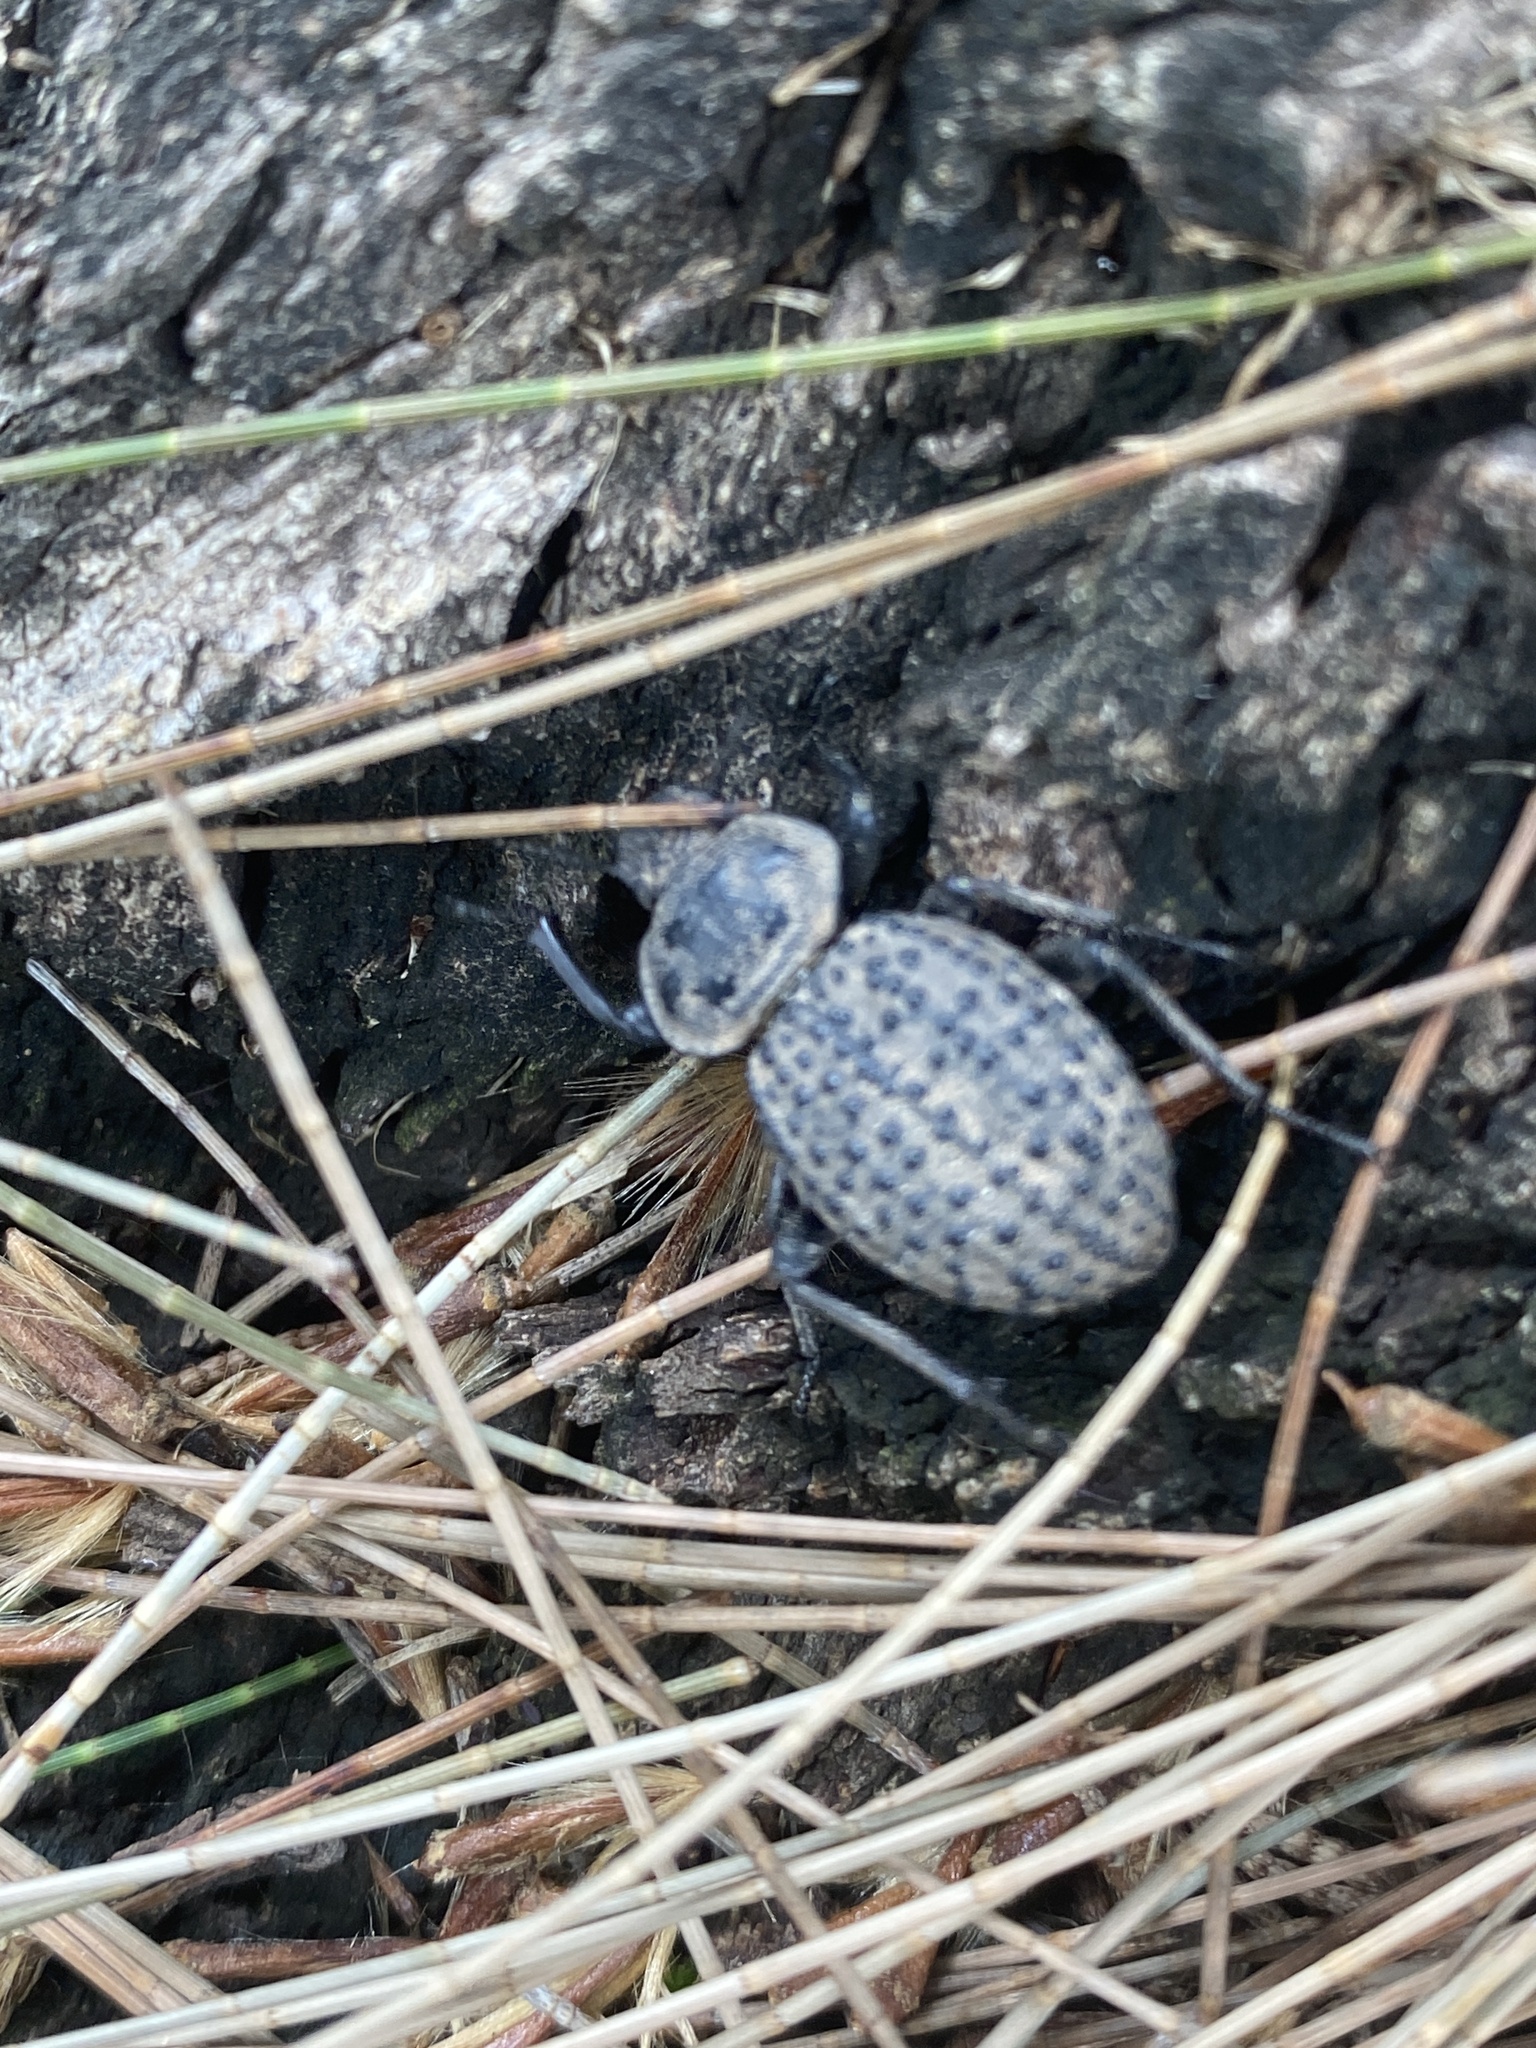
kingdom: Animalia
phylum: Arthropoda
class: Insecta
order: Coleoptera
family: Tenebrionidae
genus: Scotobius
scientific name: Scotobius pilularius
